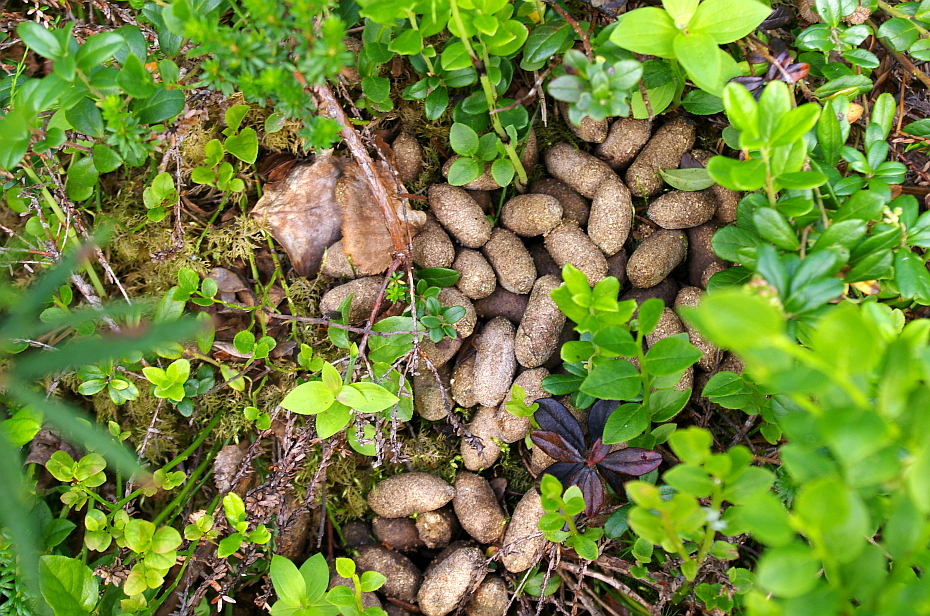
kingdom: Animalia
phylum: Chordata
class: Mammalia
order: Artiodactyla
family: Cervidae
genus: Alces
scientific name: Alces alces
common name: Moose
